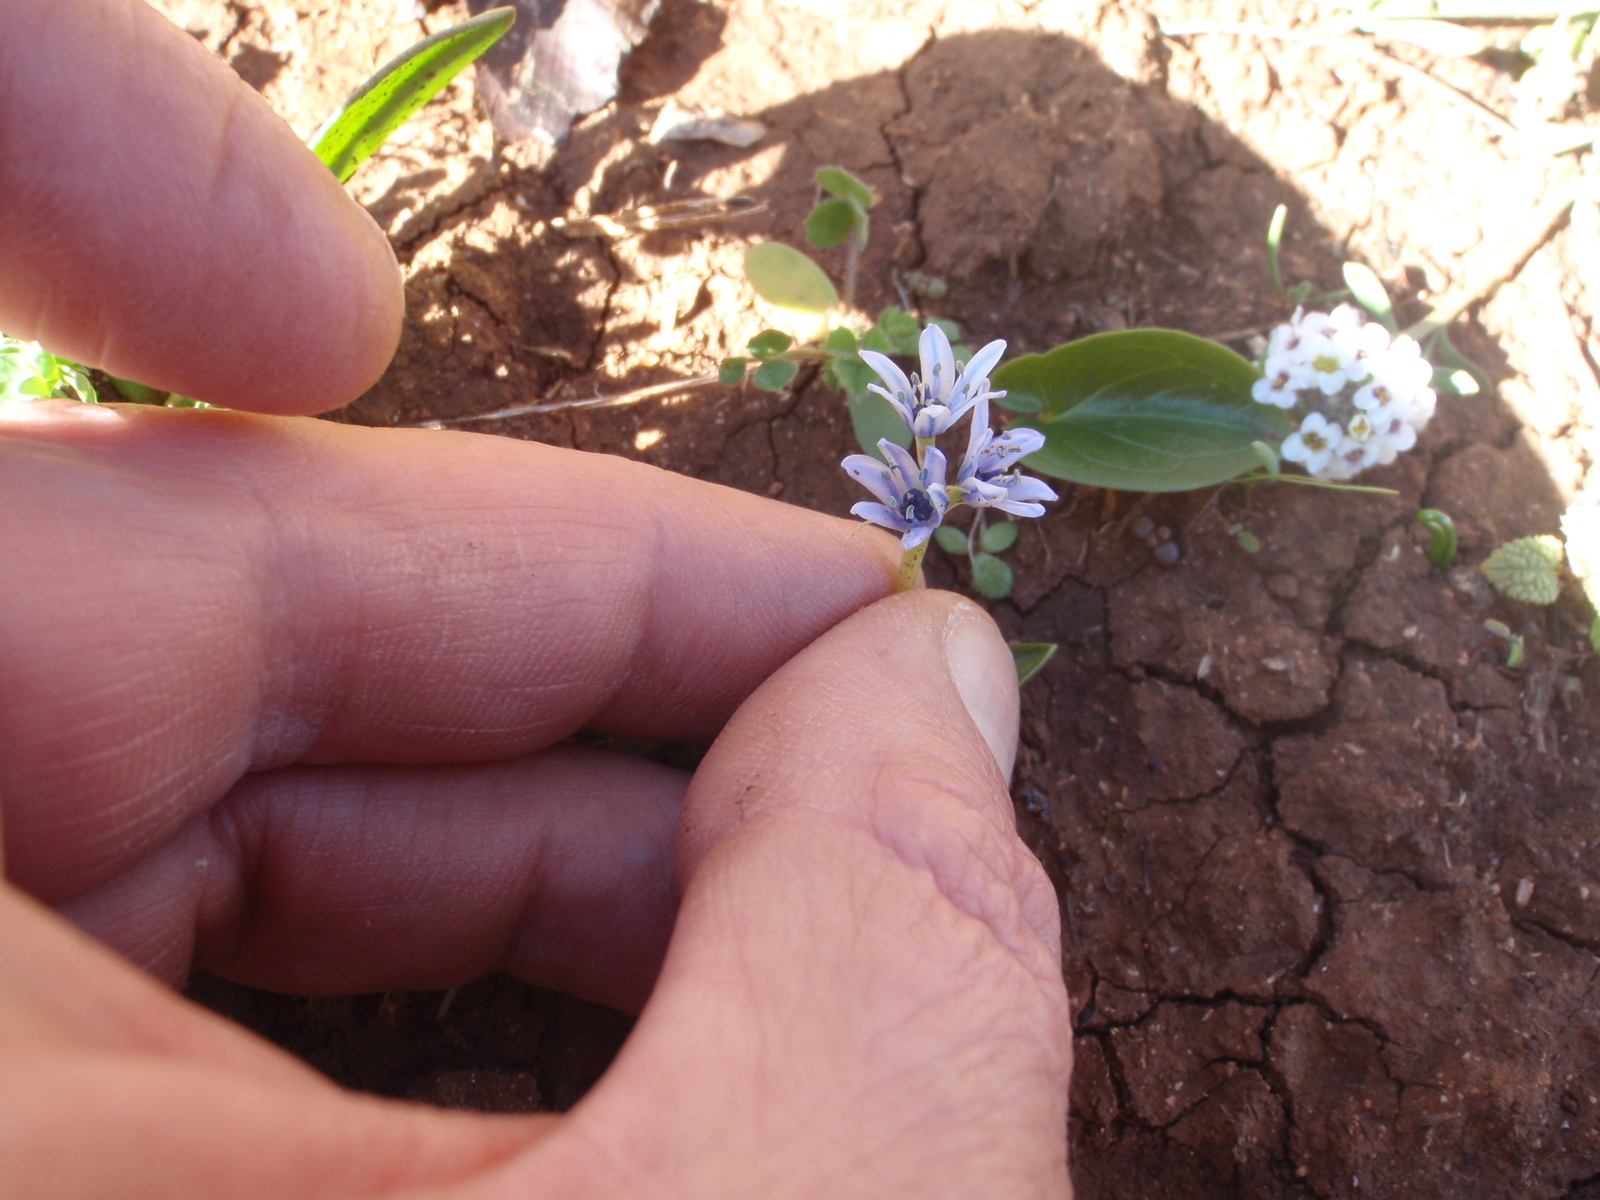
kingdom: Plantae
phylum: Tracheophyta
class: Liliopsida
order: Asparagales
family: Asparagaceae
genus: Hyacinthoides
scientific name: Hyacinthoides lingulata
